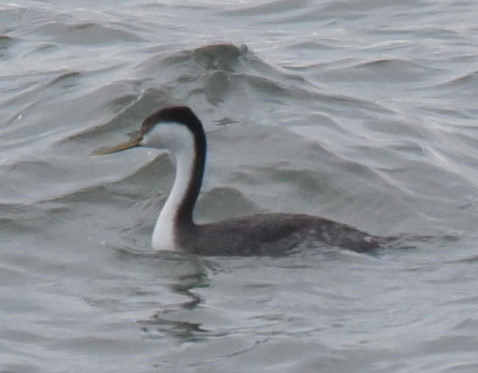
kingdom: Animalia
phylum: Chordata
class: Aves
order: Podicipediformes
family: Podicipedidae
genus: Aechmophorus
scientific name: Aechmophorus occidentalis
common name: Western grebe
